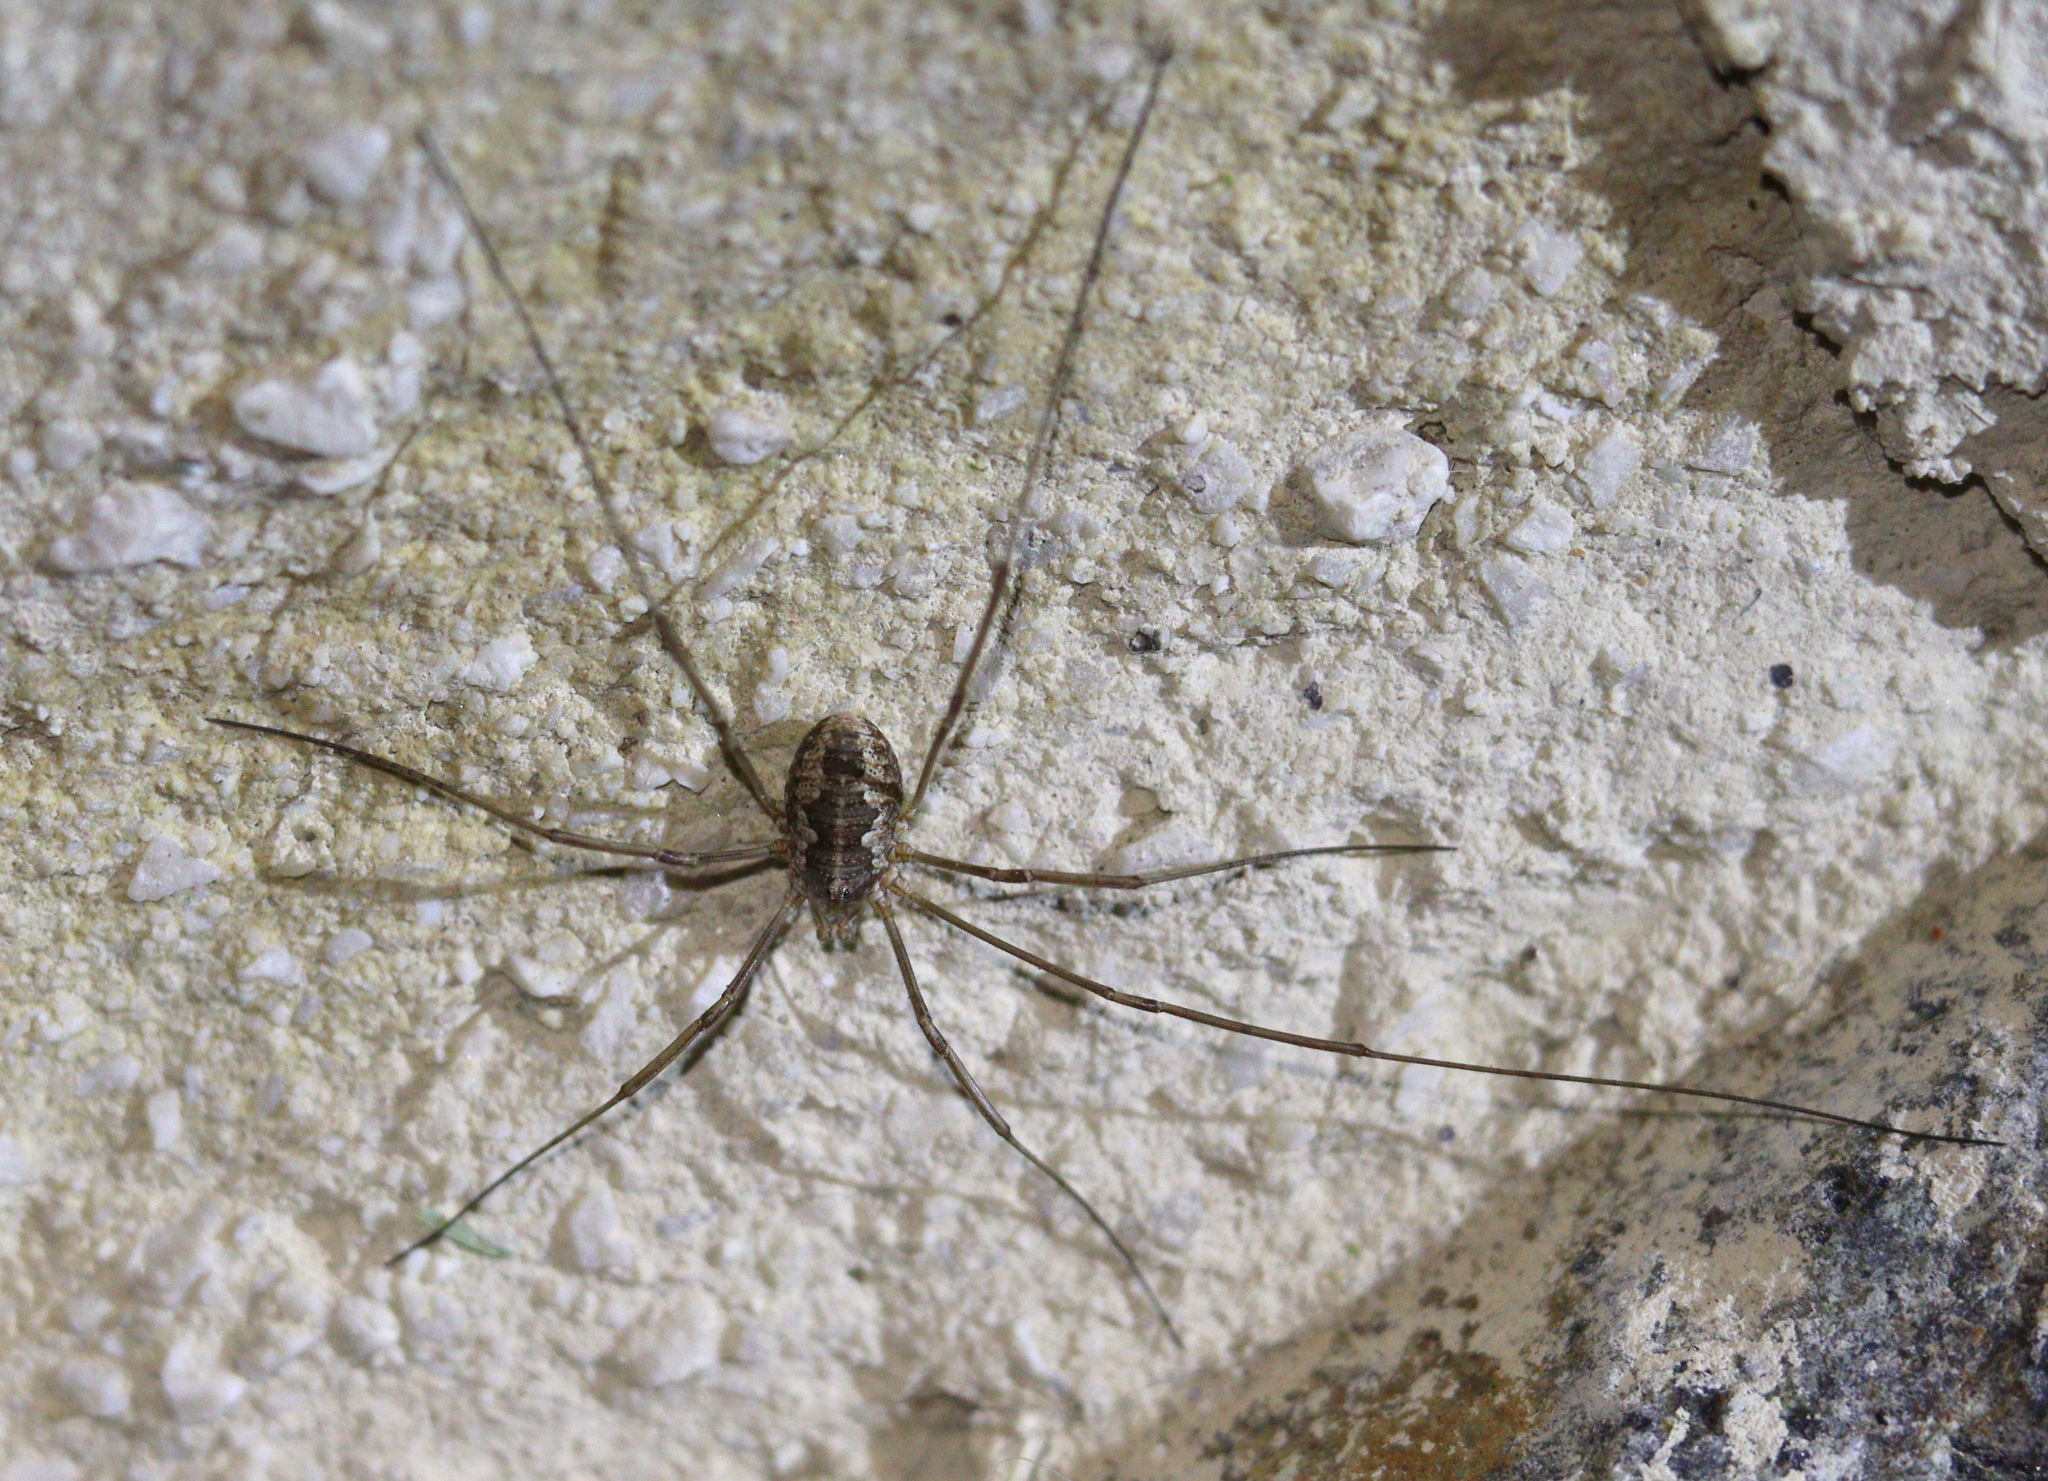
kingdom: Animalia
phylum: Arthropoda
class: Arachnida
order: Opiliones
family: Phalangiidae
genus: Phalangium
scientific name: Phalangium opilio
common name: Daddy longleg
